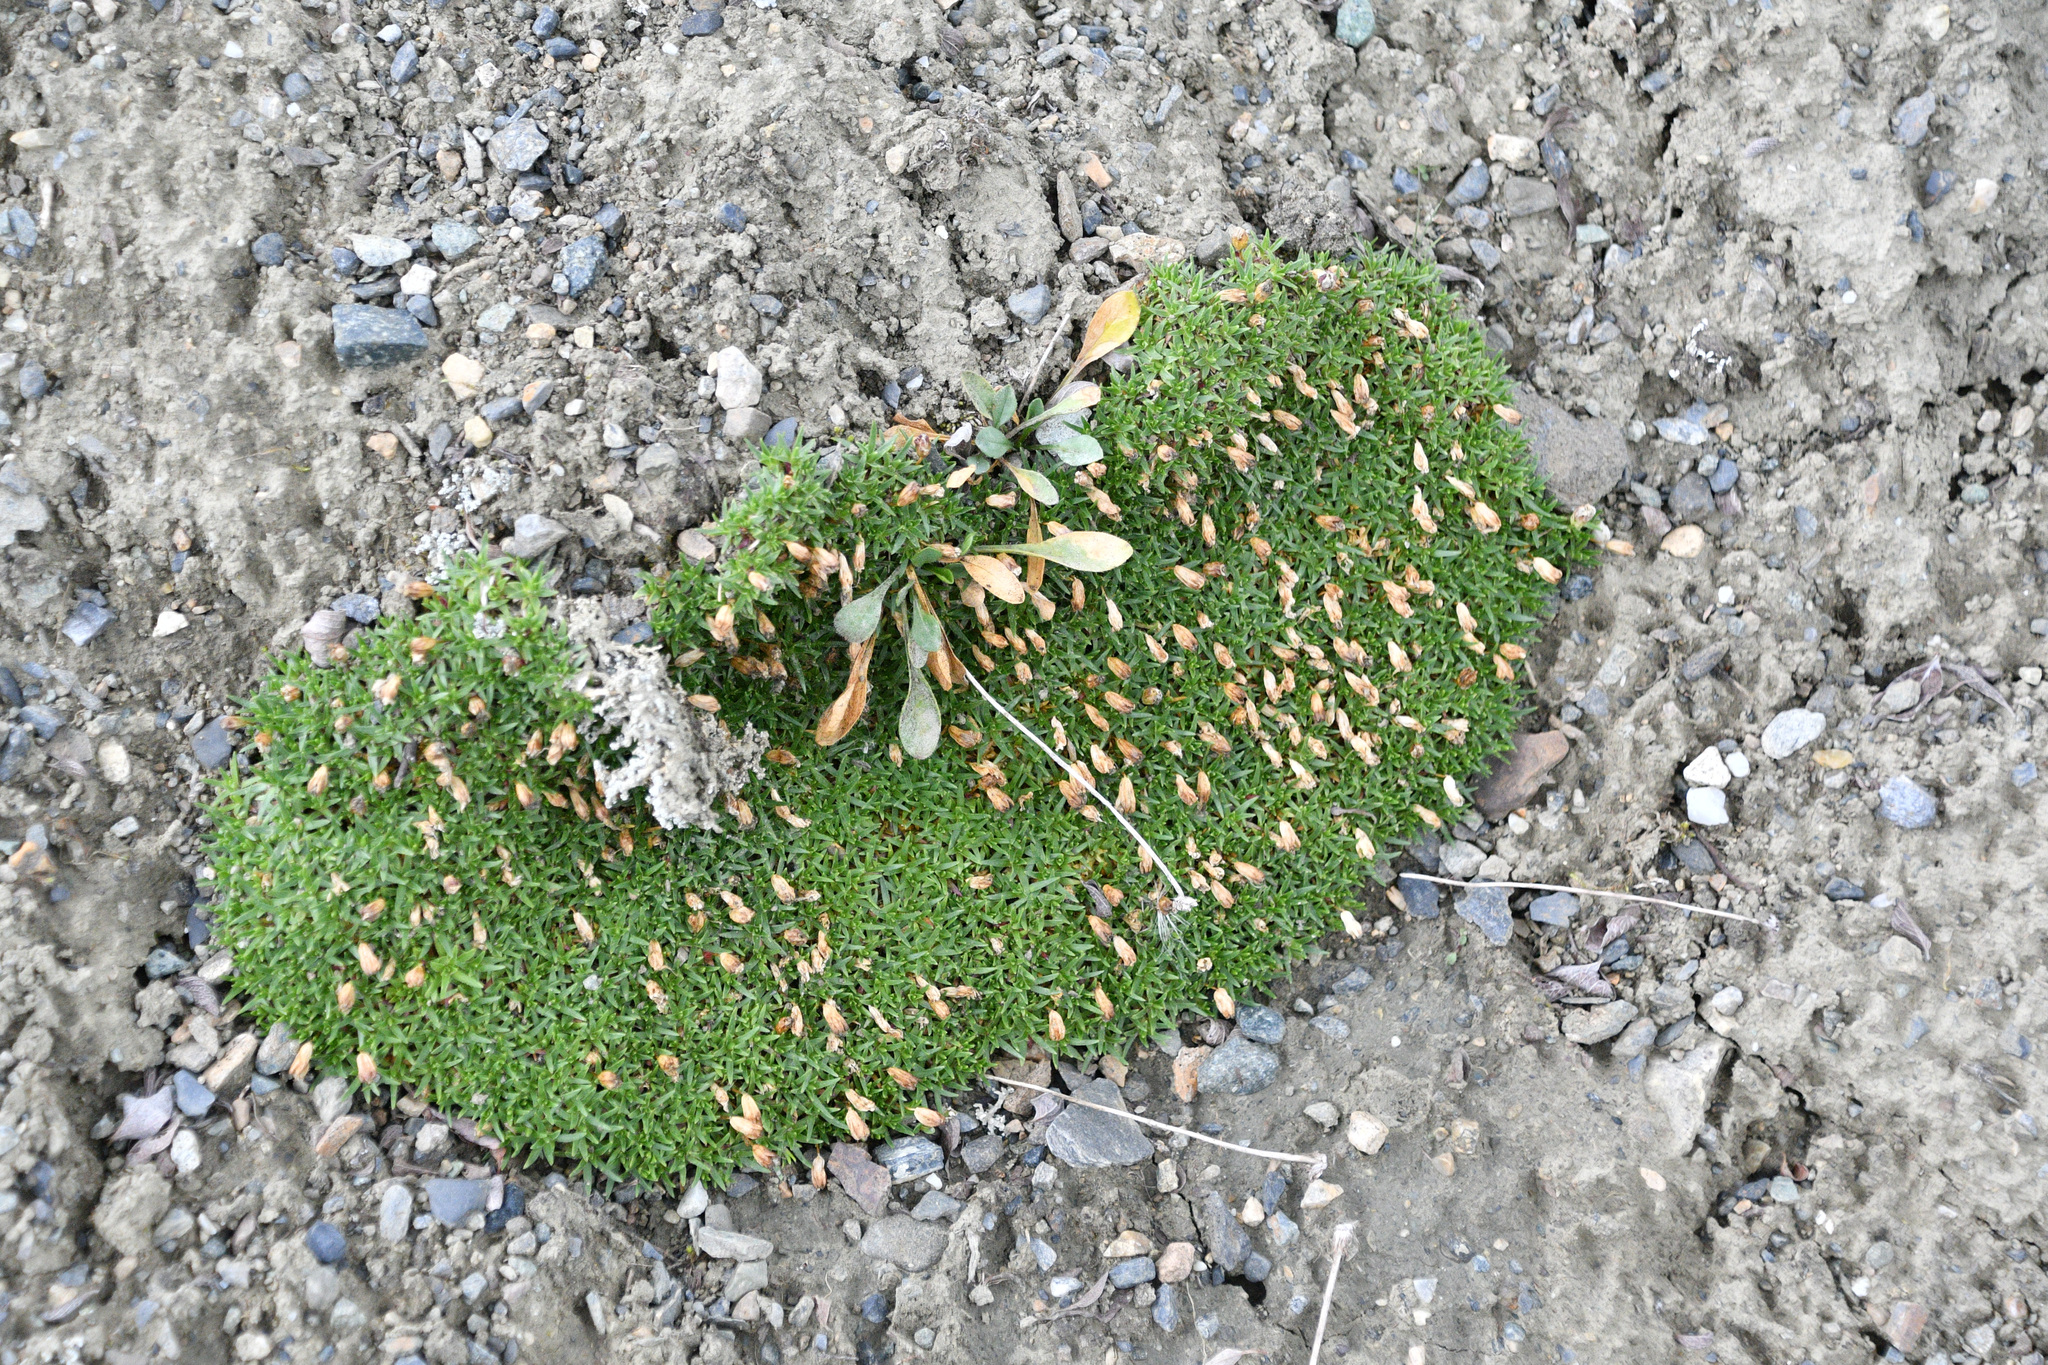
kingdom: Plantae
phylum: Tracheophyta
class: Magnoliopsida
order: Caryophyllales
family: Caryophyllaceae
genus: Silene
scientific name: Silene acaulis
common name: Moss campion
